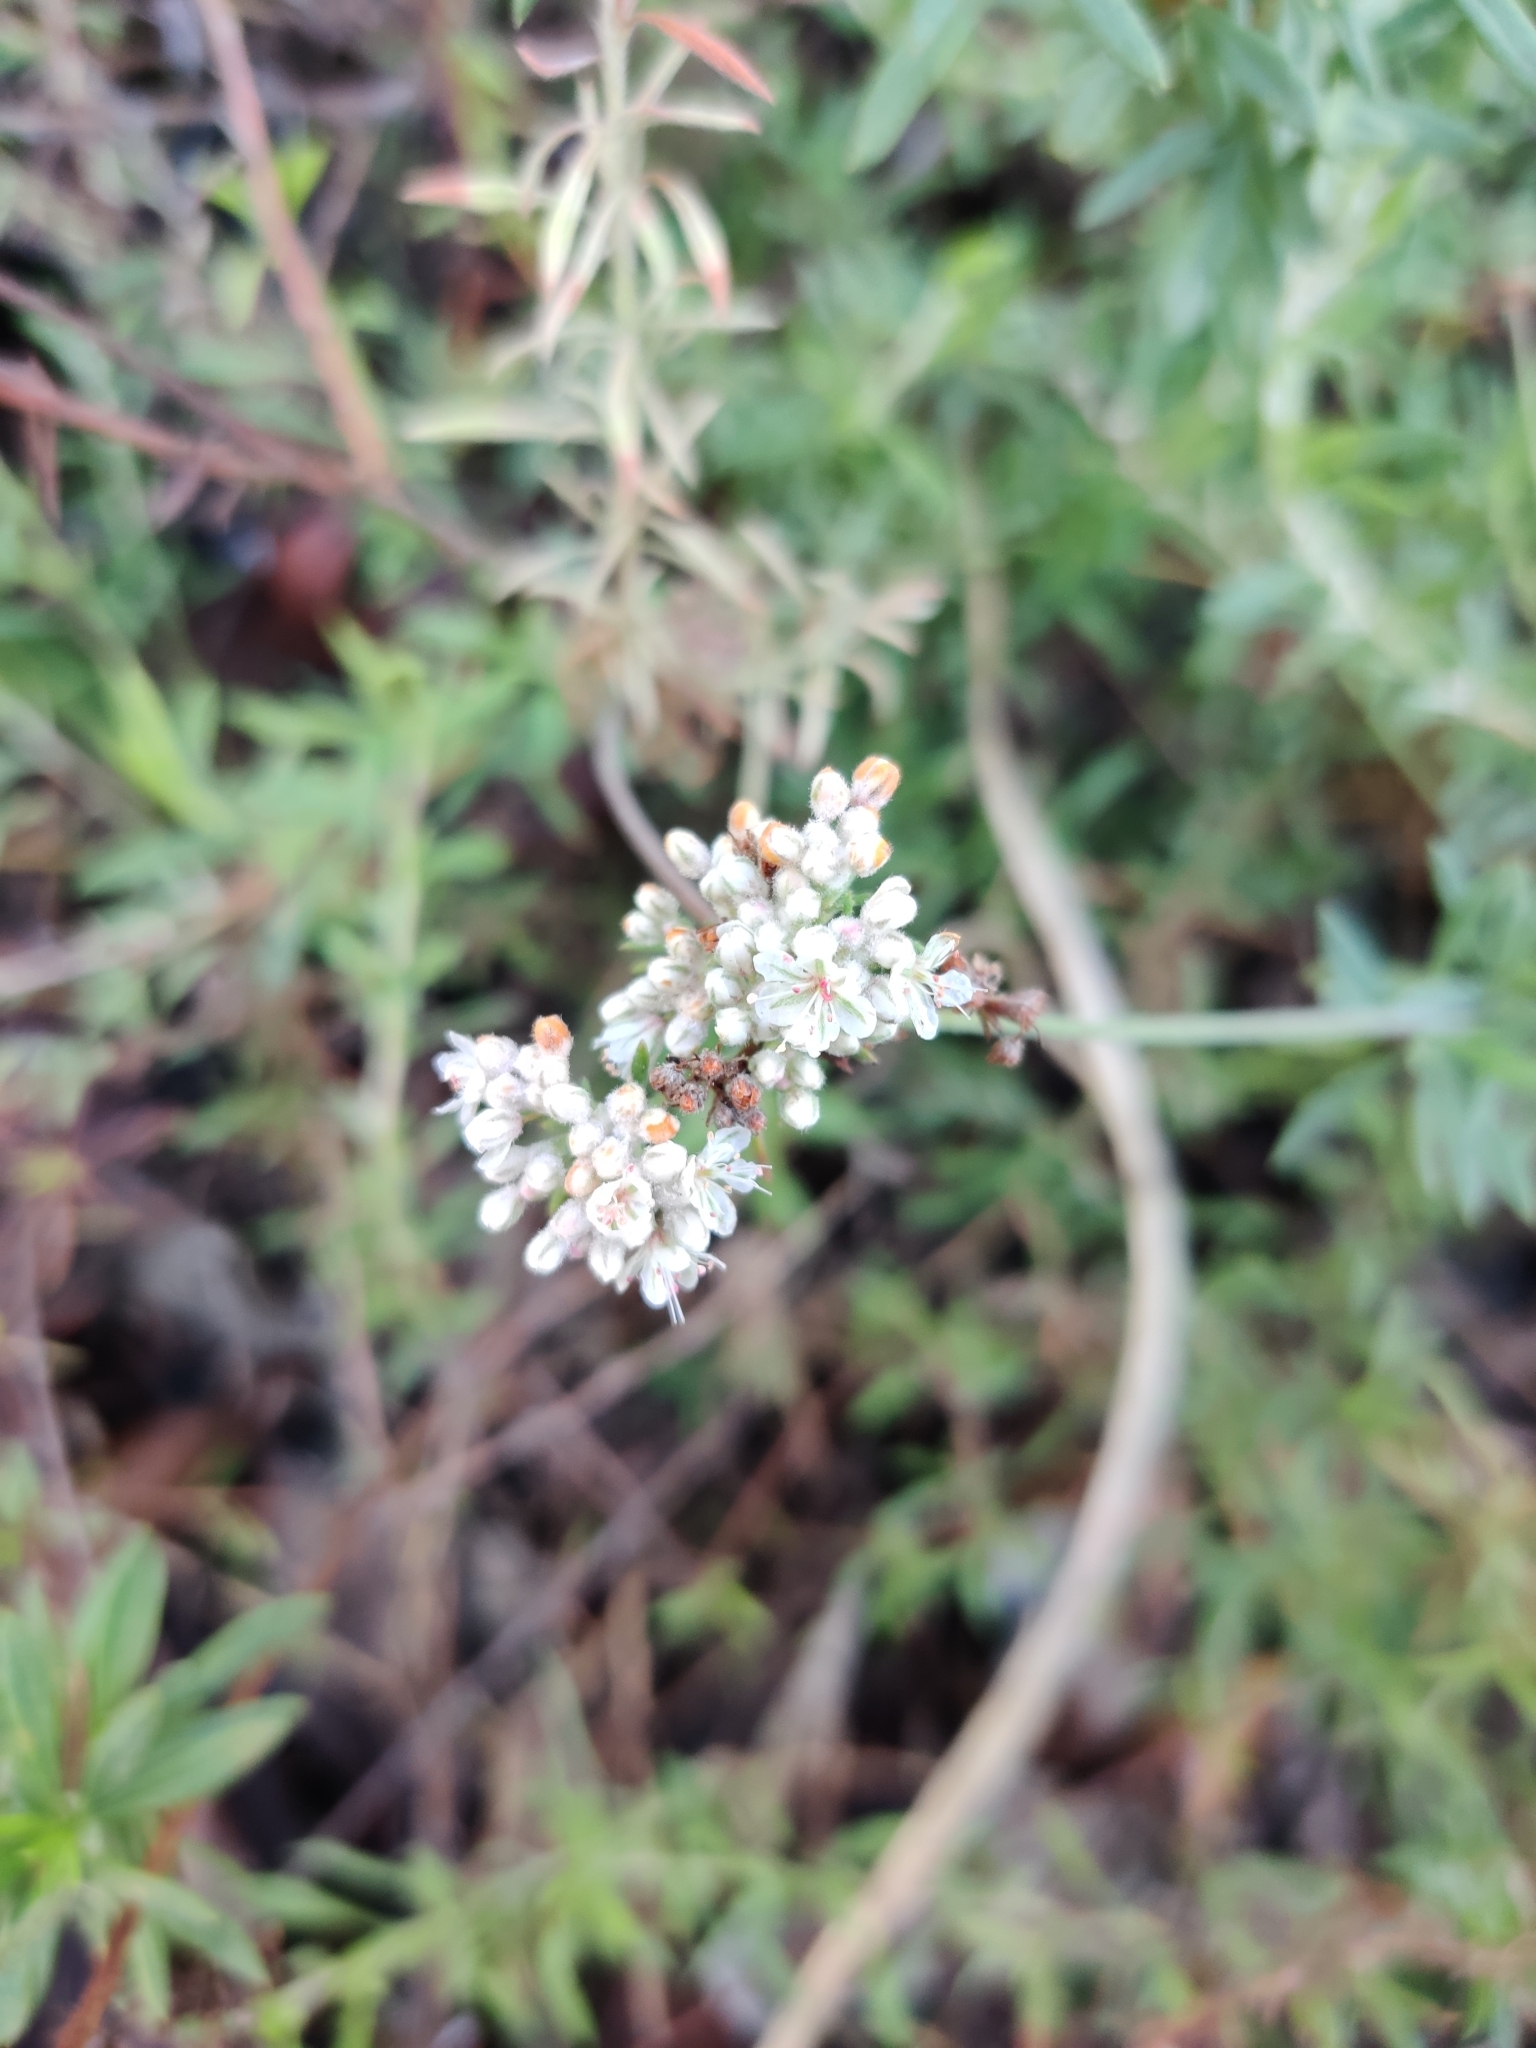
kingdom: Plantae
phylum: Tracheophyta
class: Magnoliopsida
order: Caryophyllales
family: Polygonaceae
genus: Eriogonum
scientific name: Eriogonum fasciculatum
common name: California wild buckwheat
